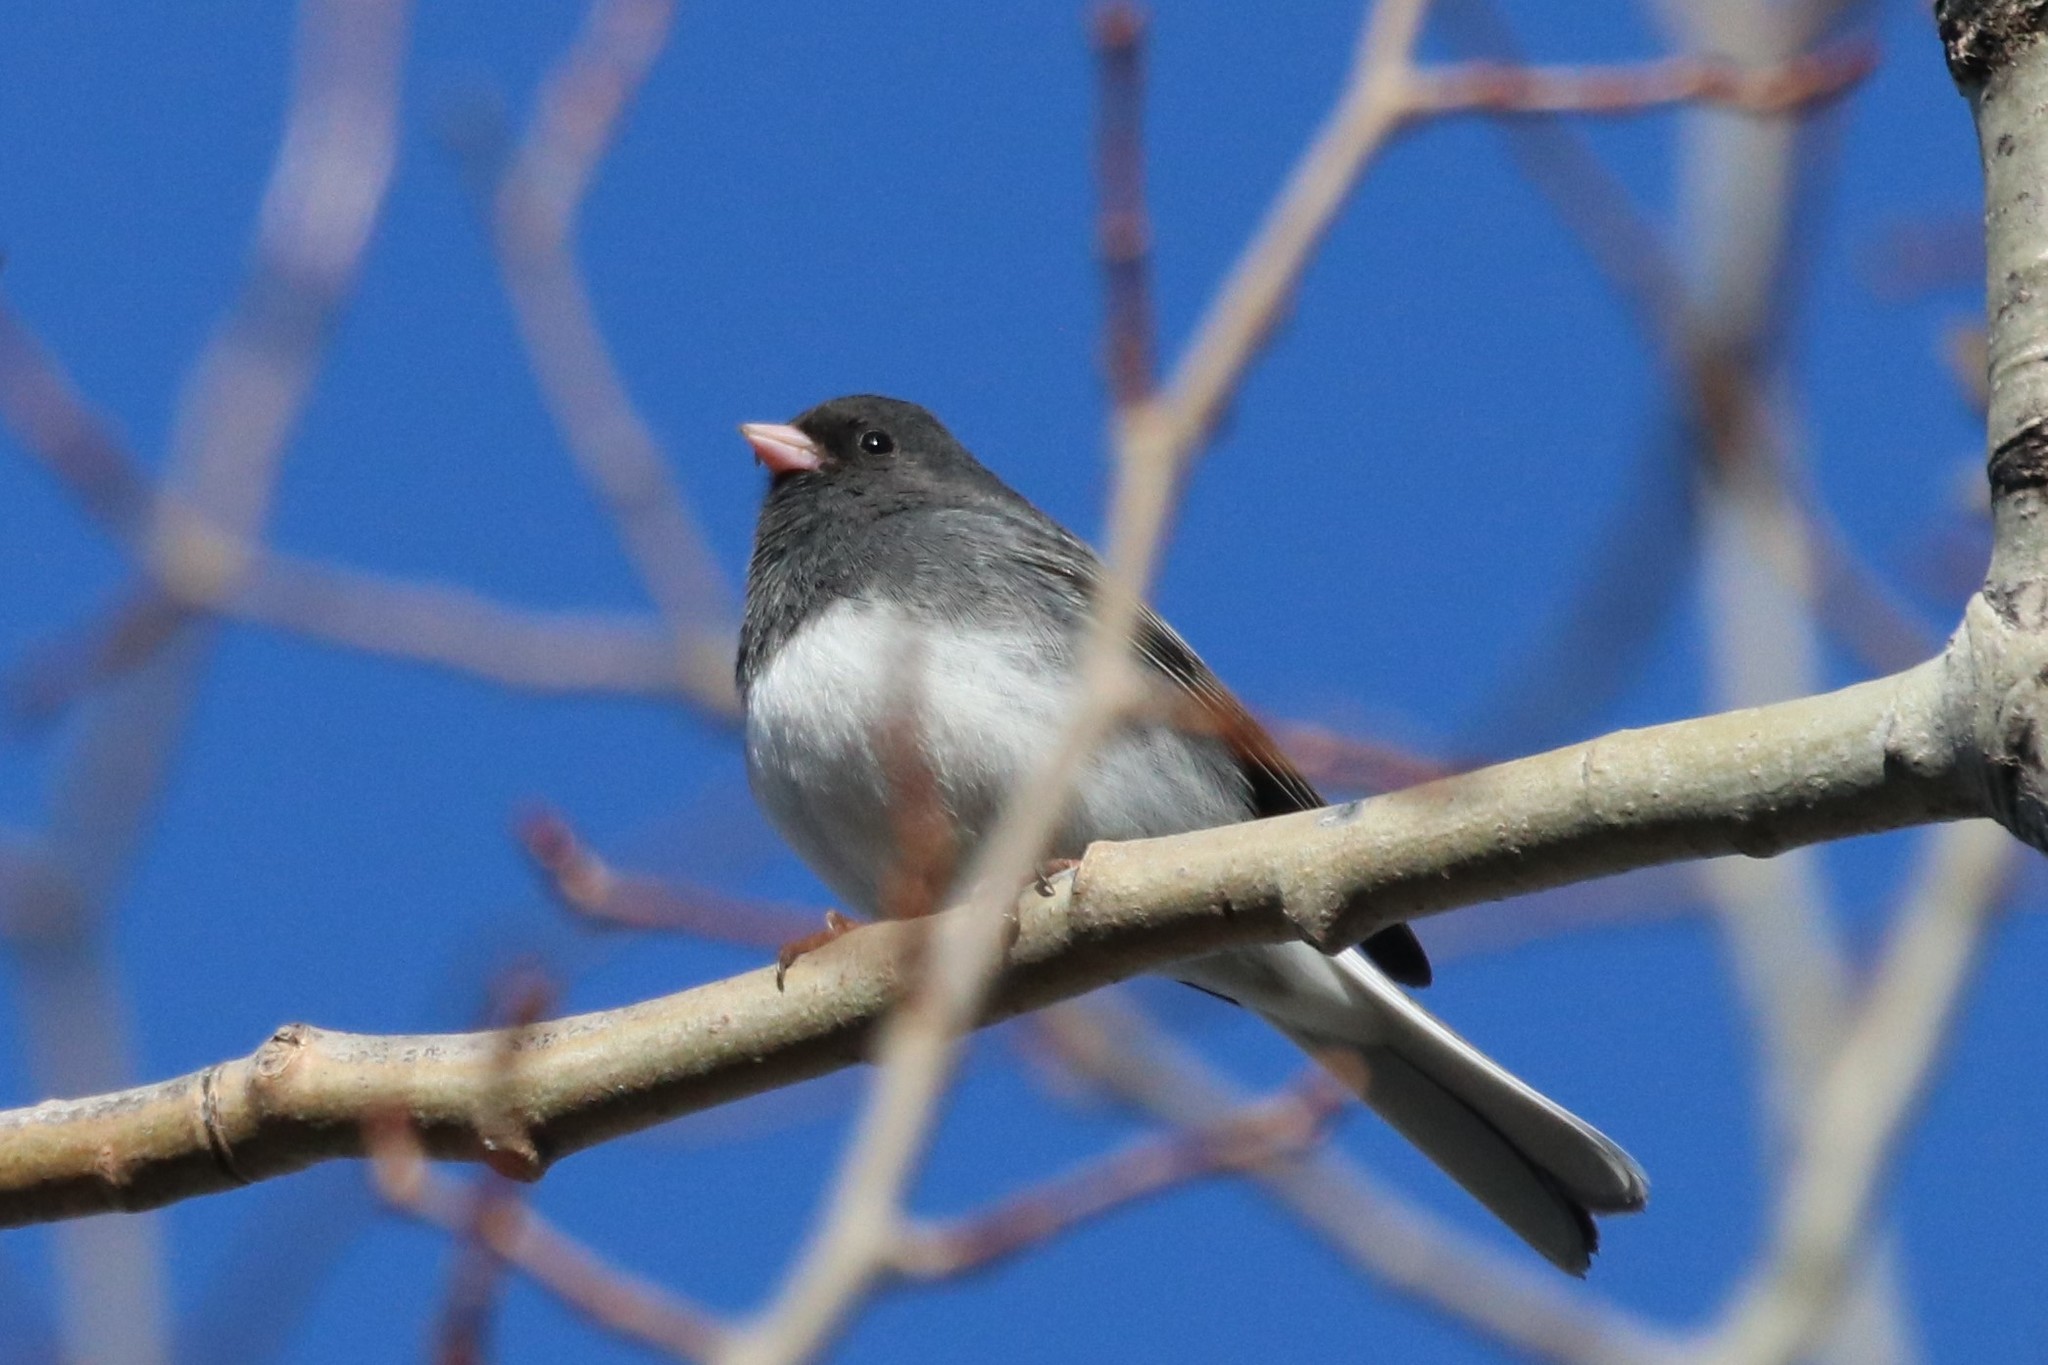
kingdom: Animalia
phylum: Chordata
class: Aves
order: Passeriformes
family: Passerellidae
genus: Junco
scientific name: Junco hyemalis
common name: Dark-eyed junco
